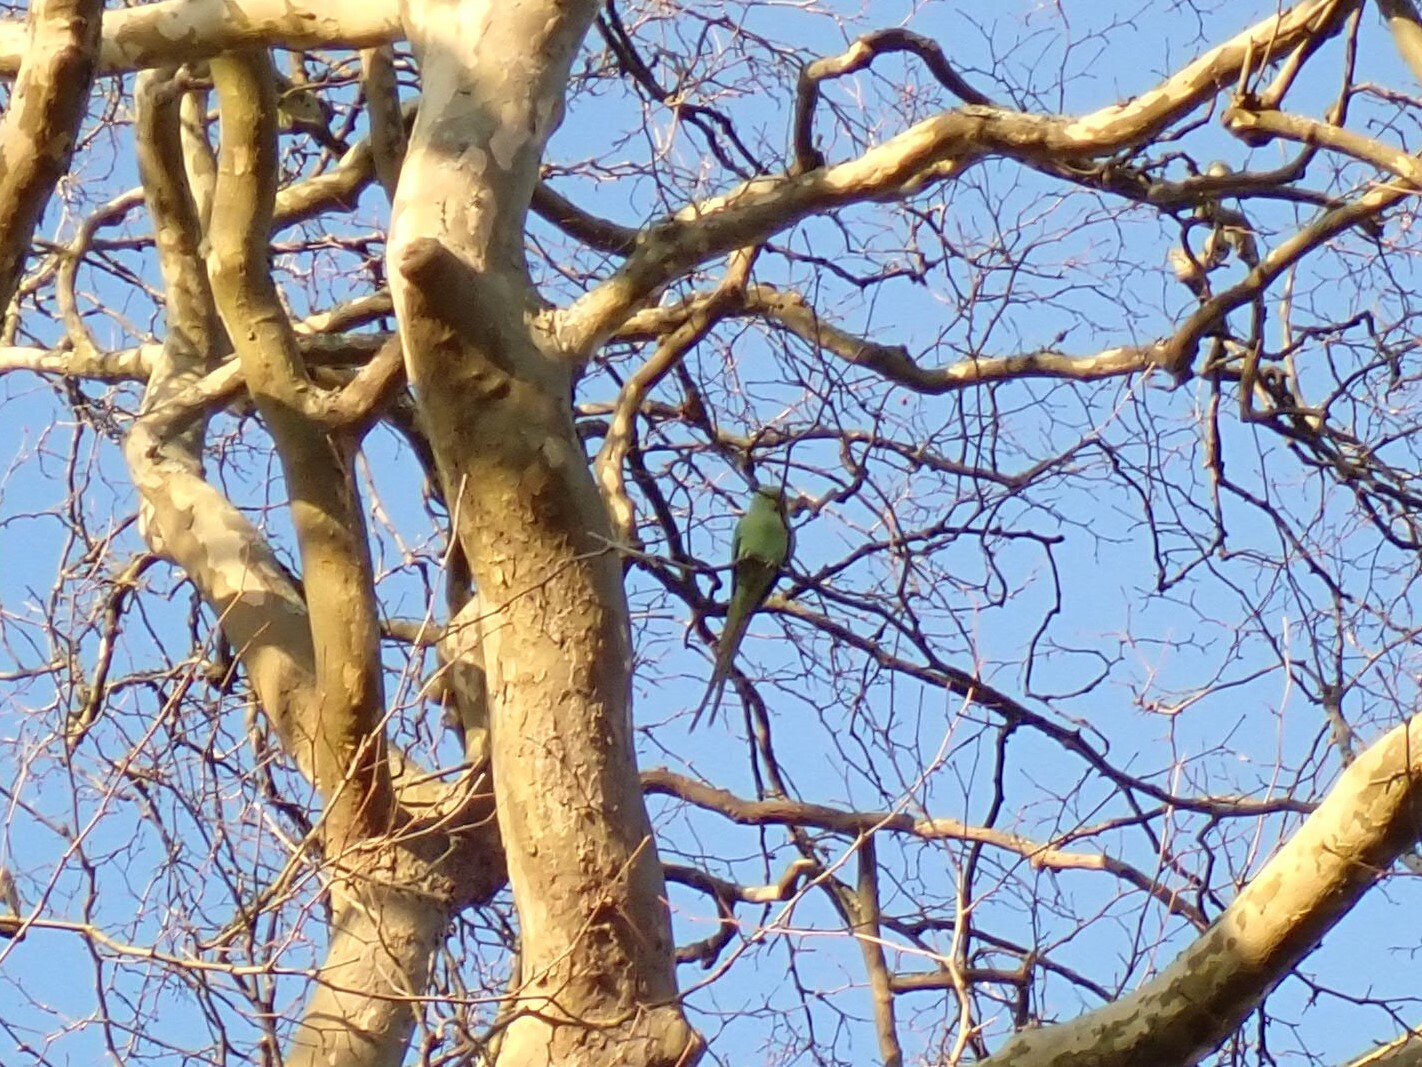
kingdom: Animalia
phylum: Chordata
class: Aves
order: Psittaciformes
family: Psittacidae
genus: Psittacula
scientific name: Psittacula krameri
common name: Rose-ringed parakeet
